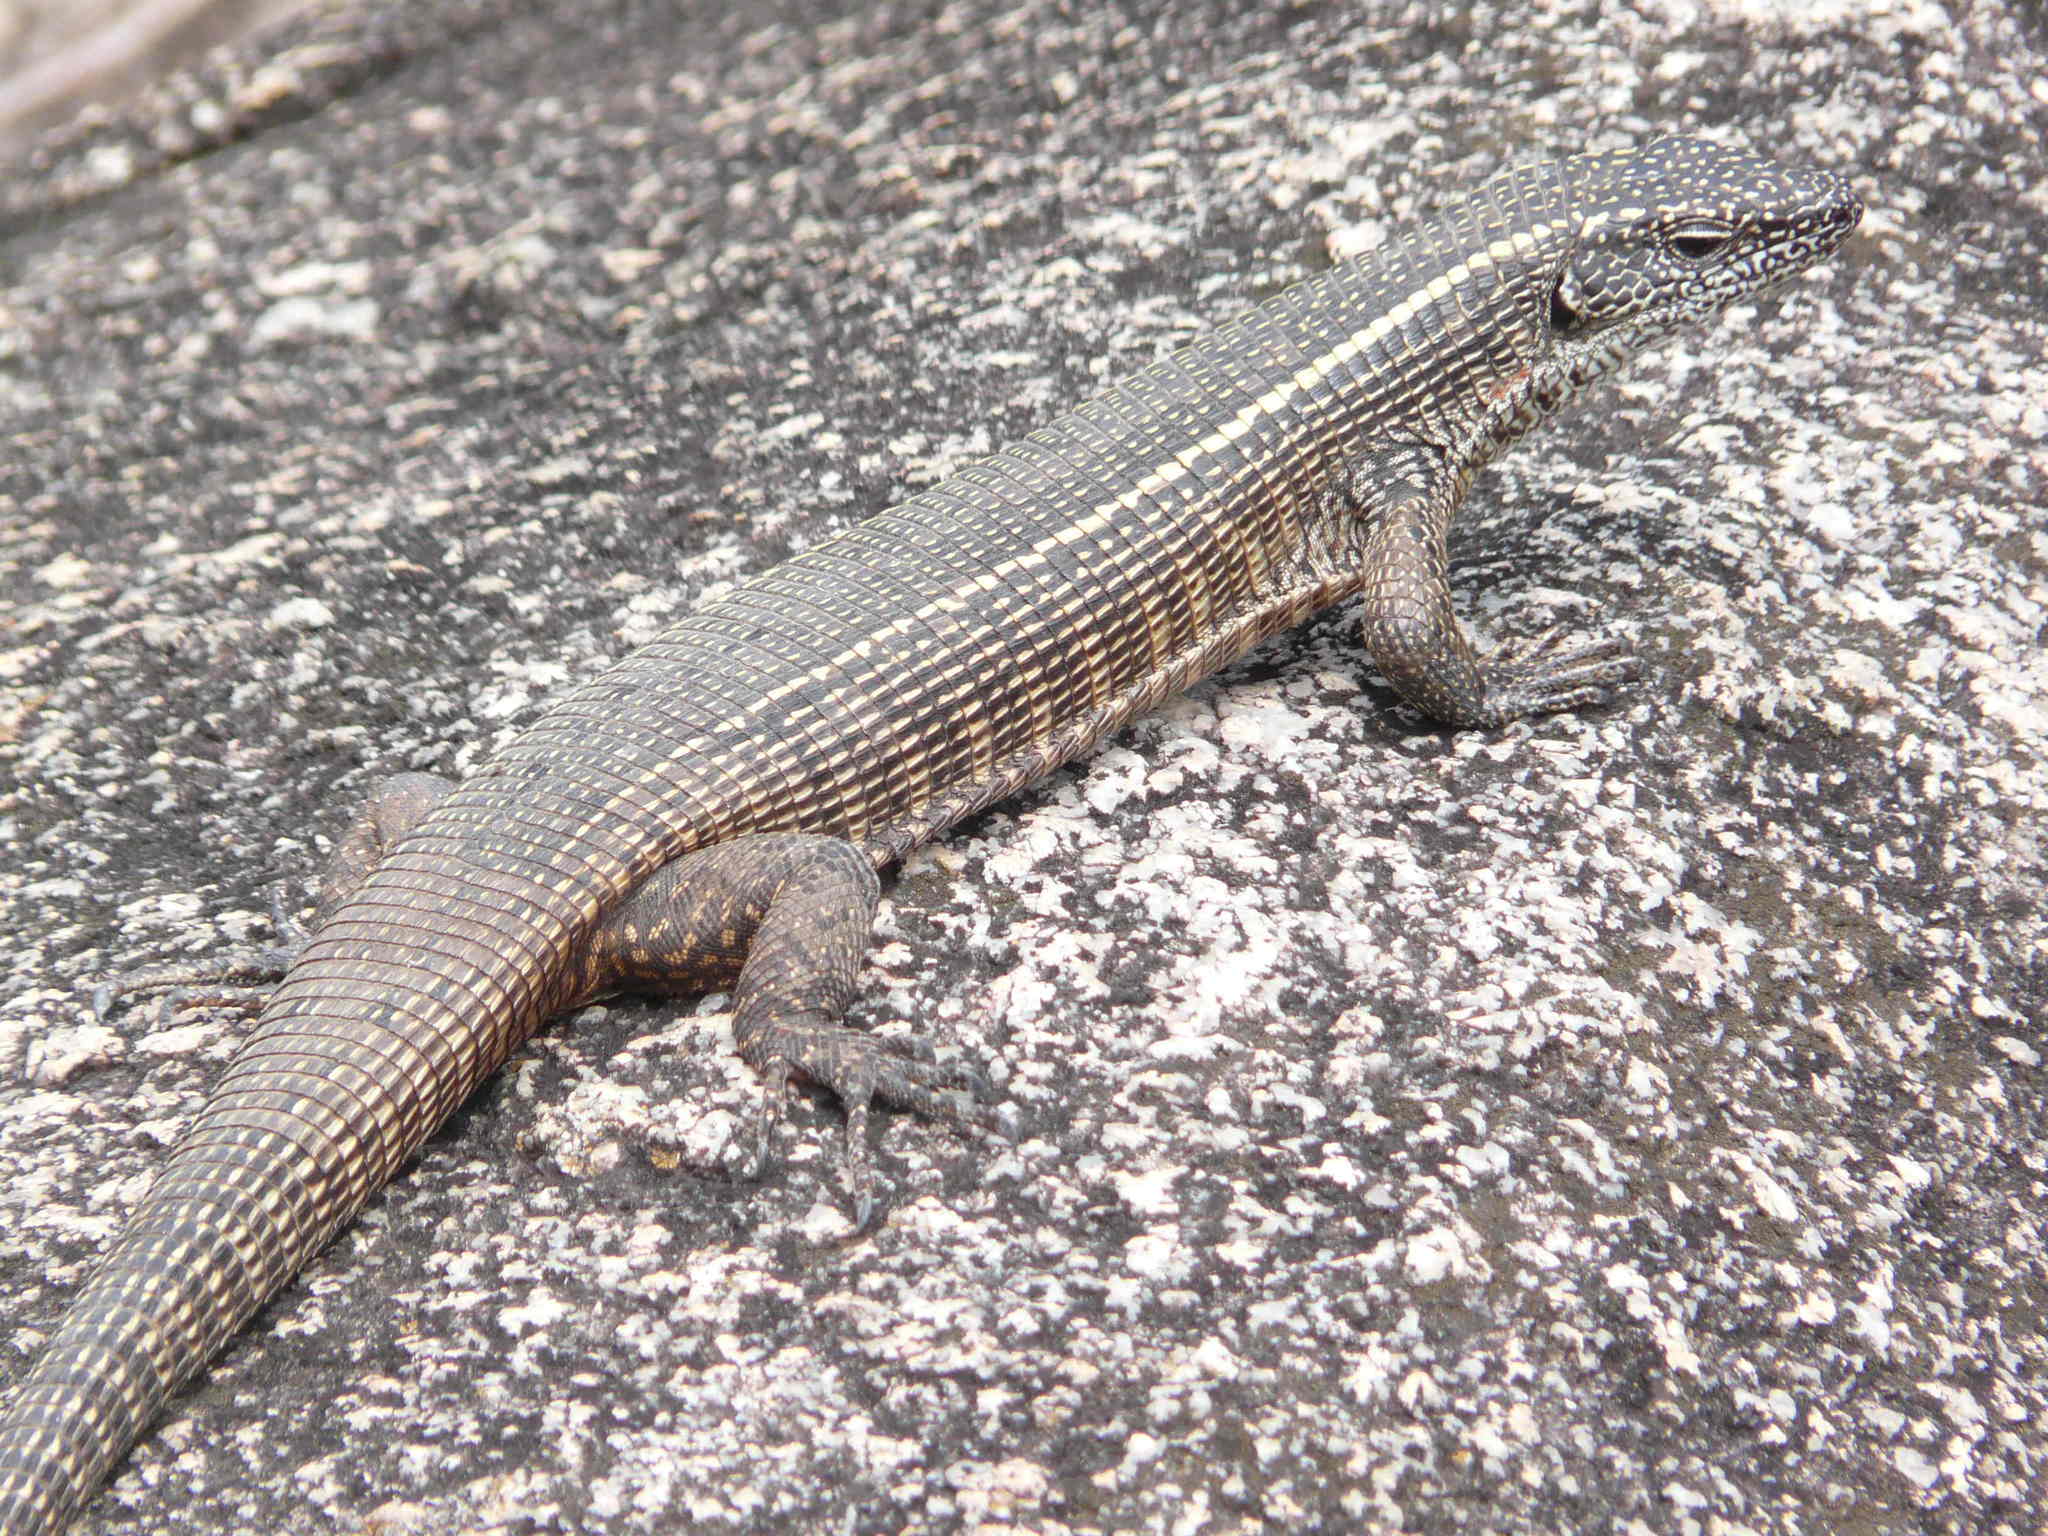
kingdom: Animalia
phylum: Chordata
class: Squamata
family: Gerrhosauridae
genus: Matobosaurus
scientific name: Matobosaurus validus
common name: Common giant plated lizard
